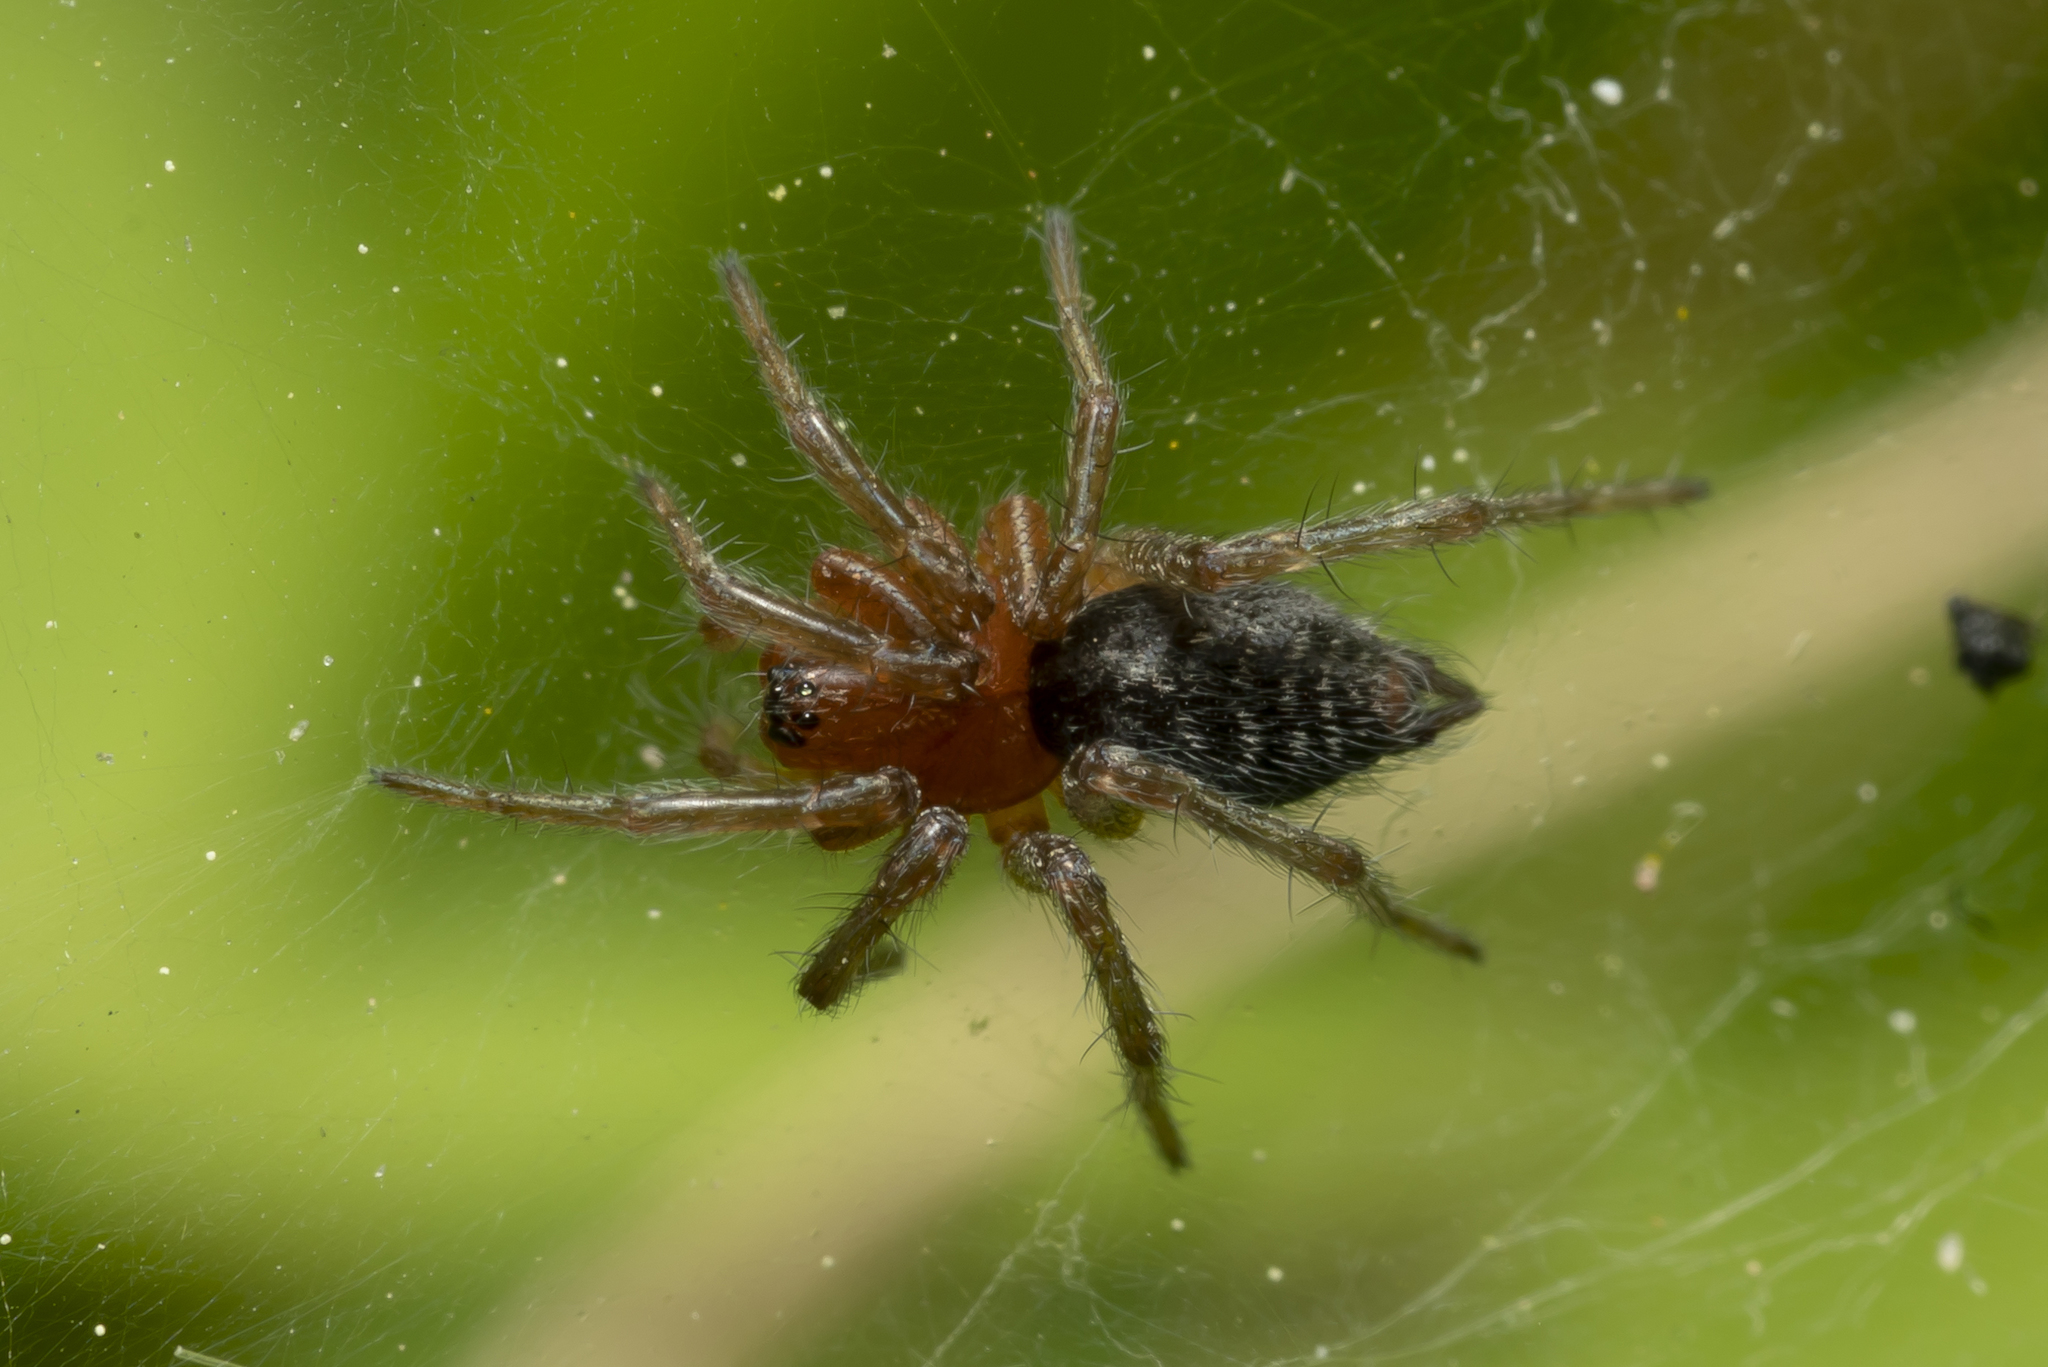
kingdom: Animalia
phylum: Arthropoda
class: Arachnida
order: Araneae
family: Agelenidae
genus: Agelena
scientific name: Agelena labyrinthica
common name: Labyrinth spider
